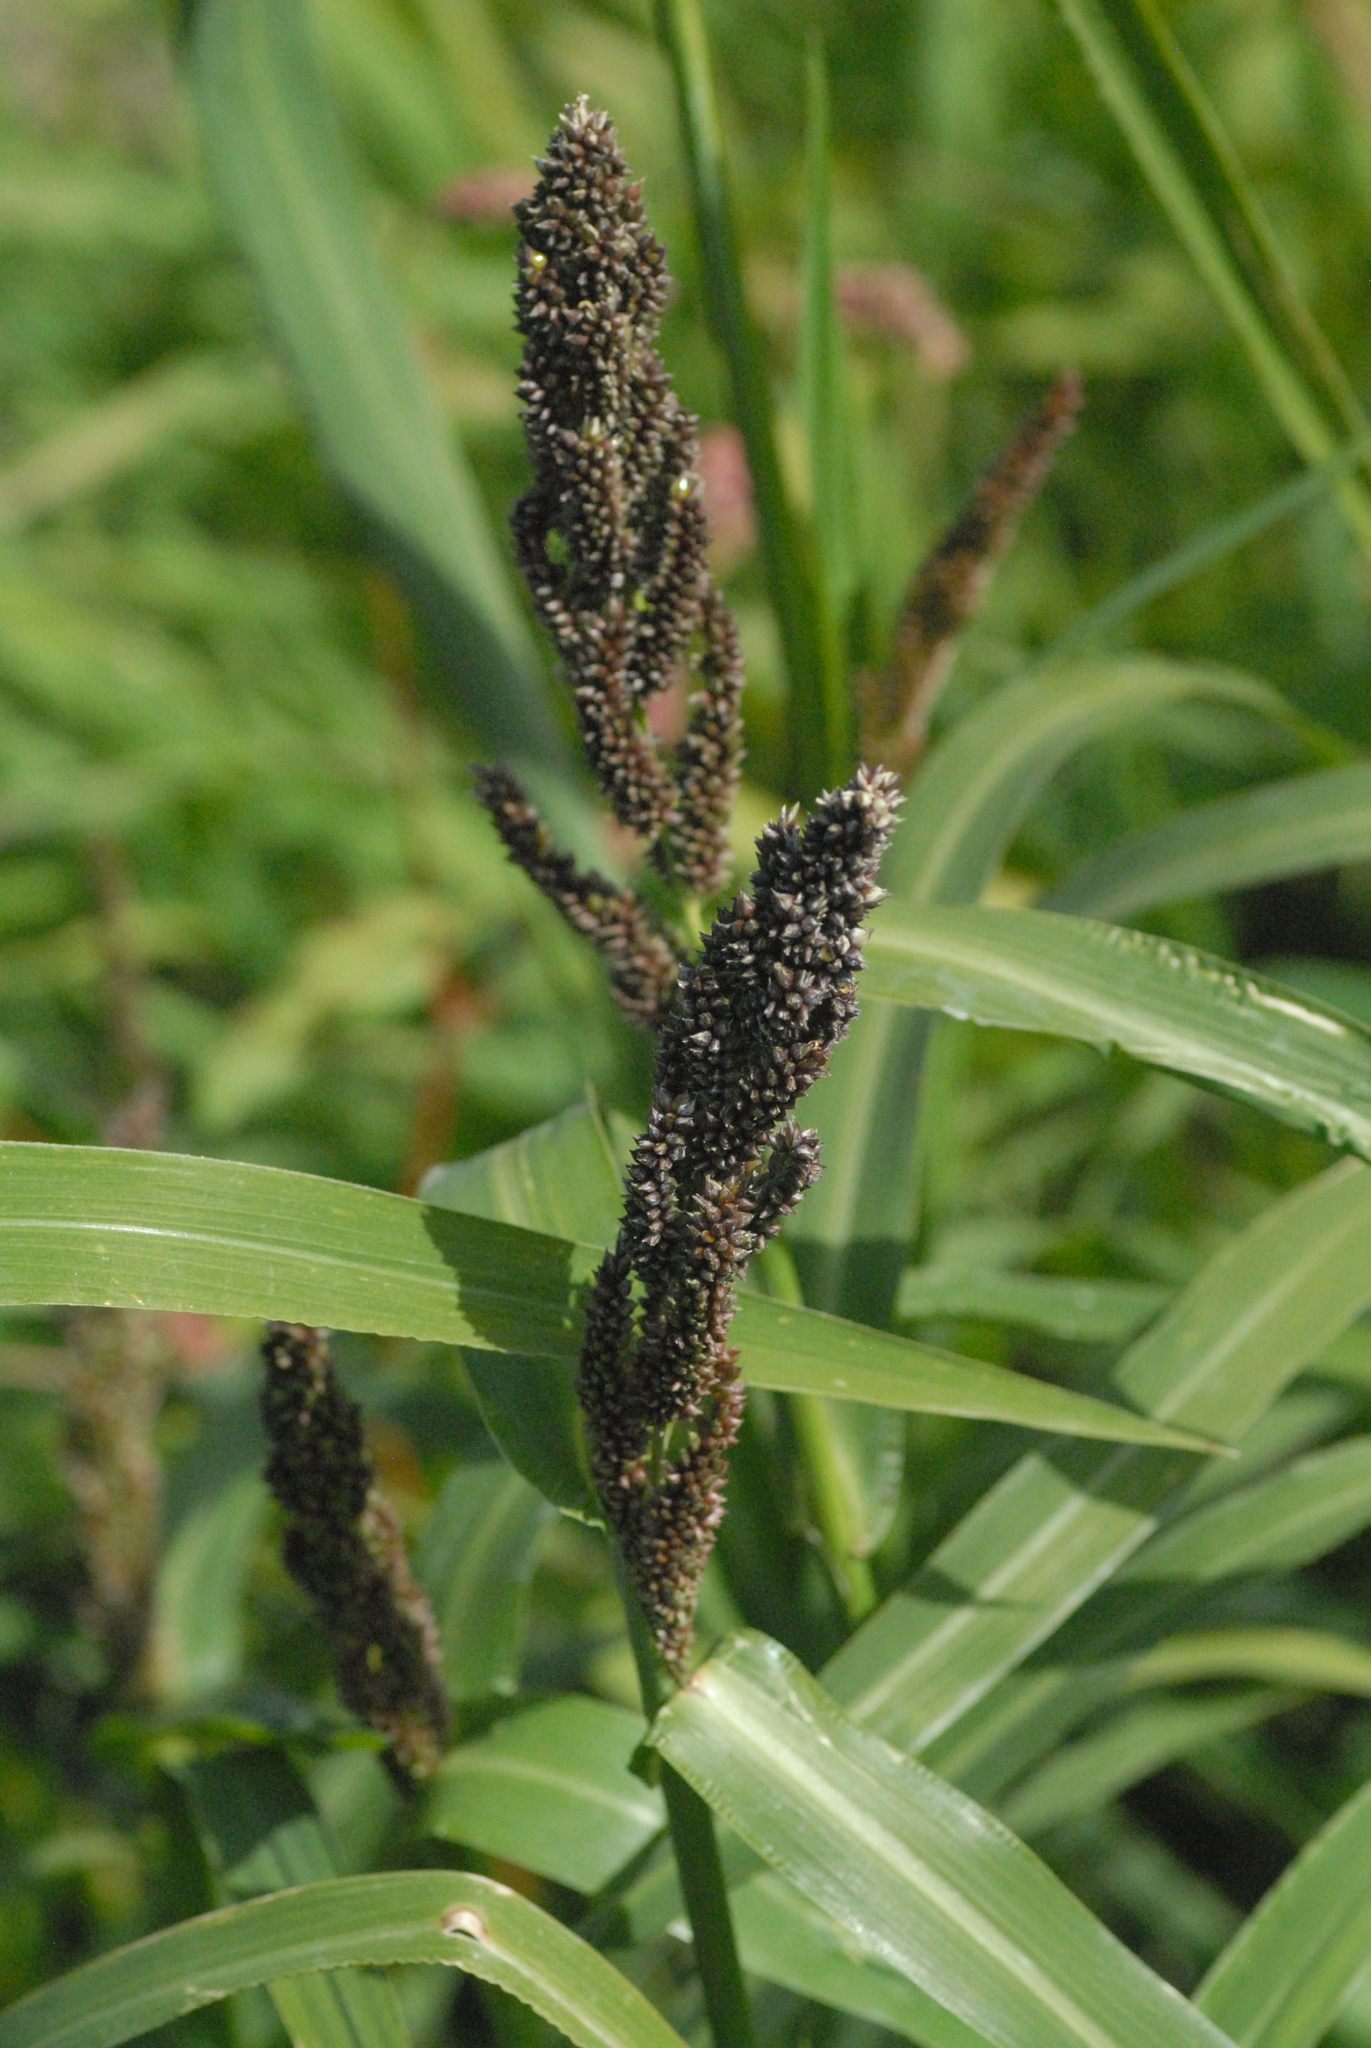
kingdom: Plantae
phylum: Tracheophyta
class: Liliopsida
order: Poales
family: Poaceae
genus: Echinochloa
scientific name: Echinochloa crus-galli
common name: Cockspur
